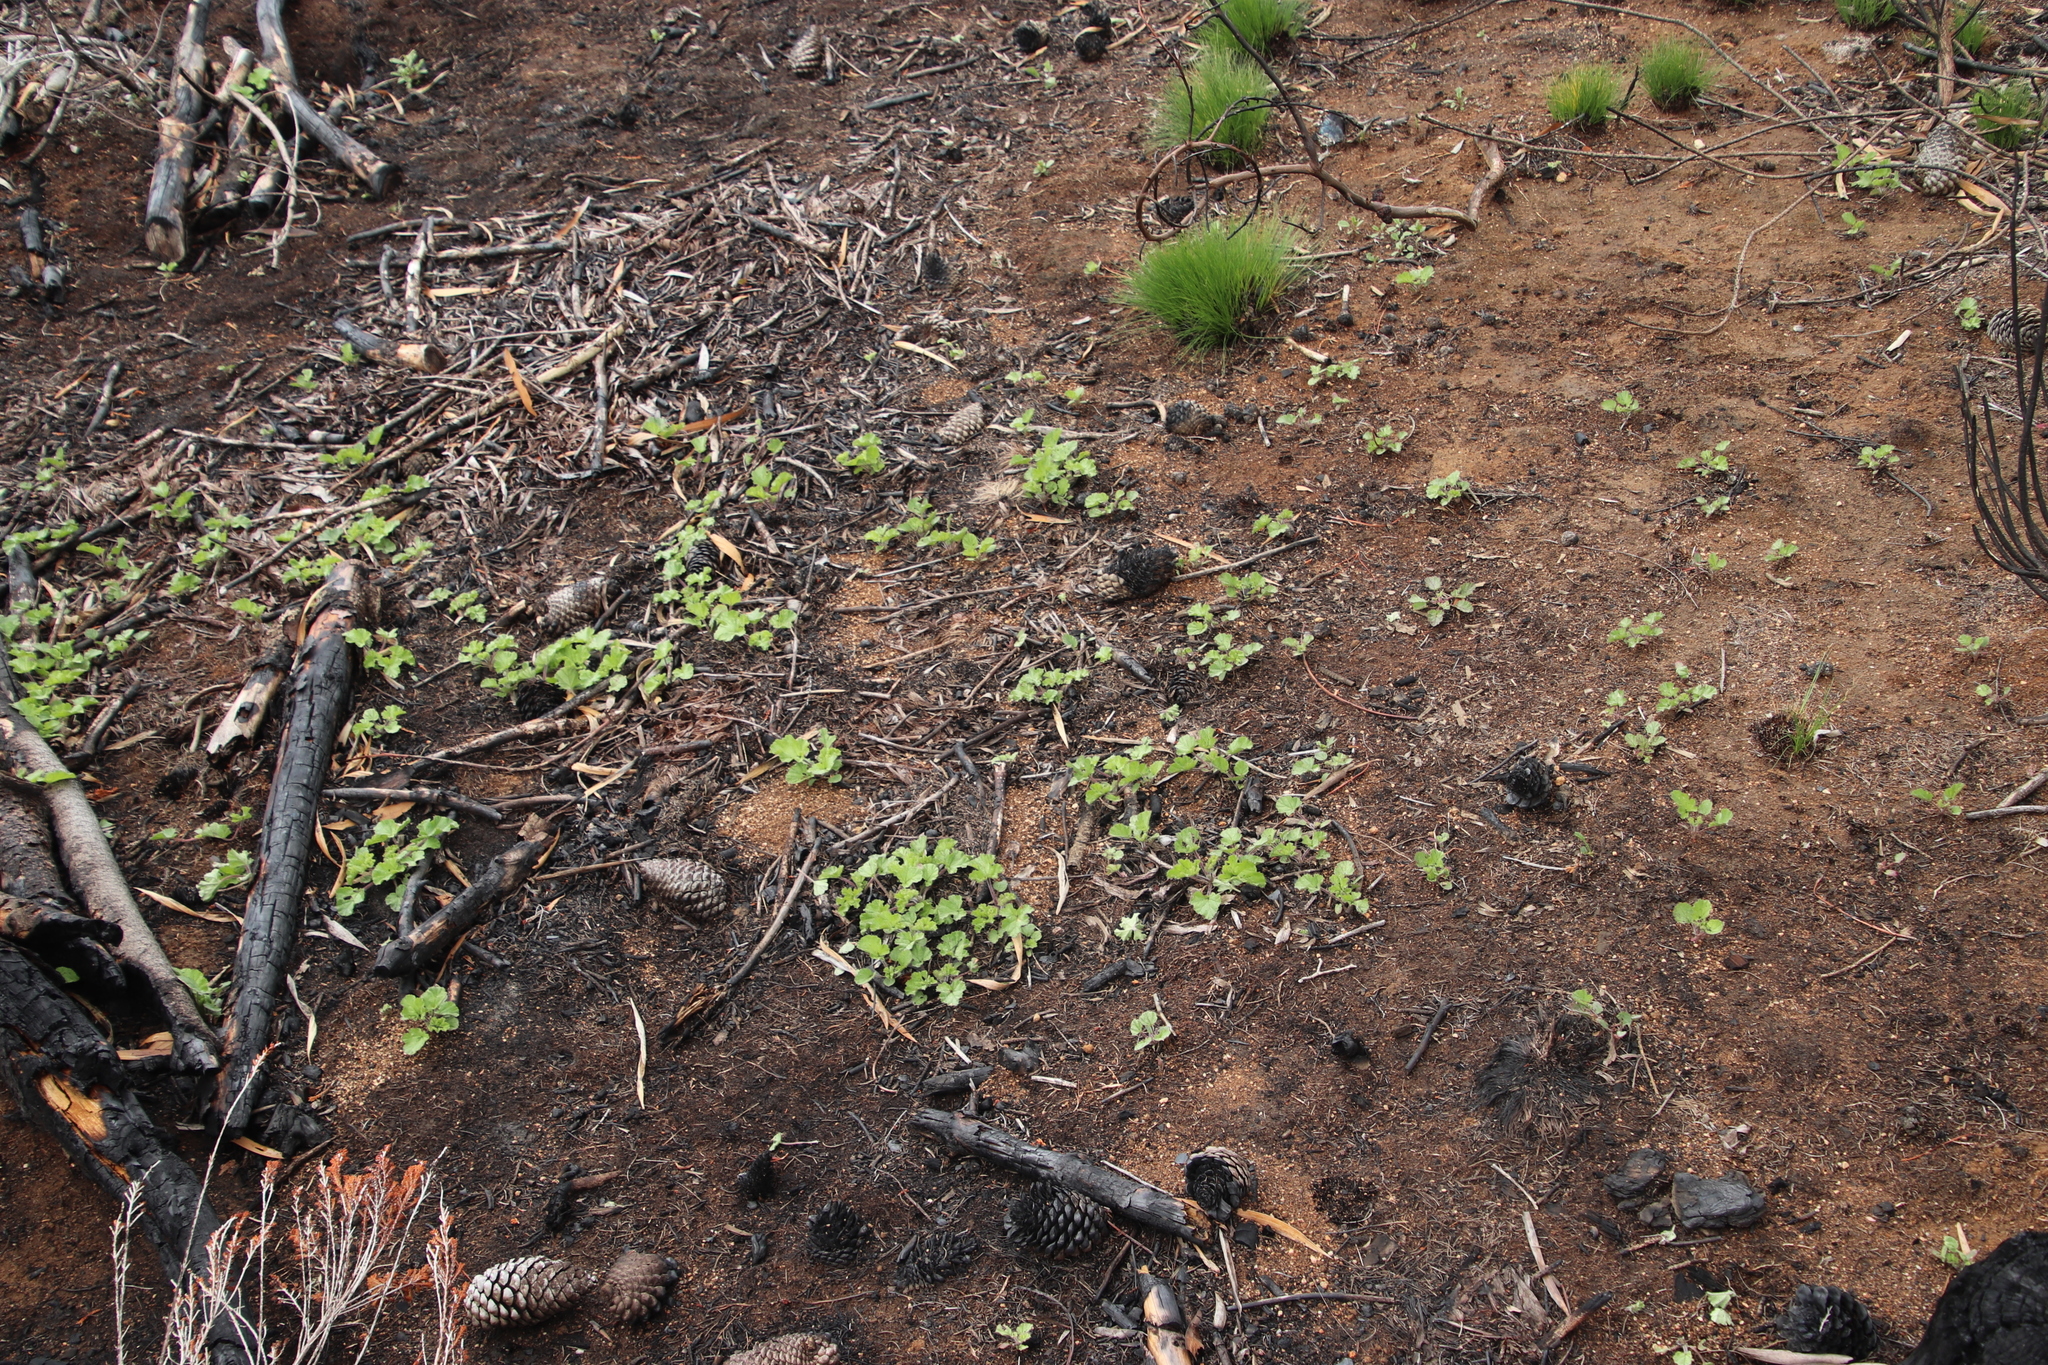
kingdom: Plantae
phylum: Tracheophyta
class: Magnoliopsida
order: Geraniales
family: Geraniaceae
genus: Pelargonium
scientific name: Pelargonium althaeoides
